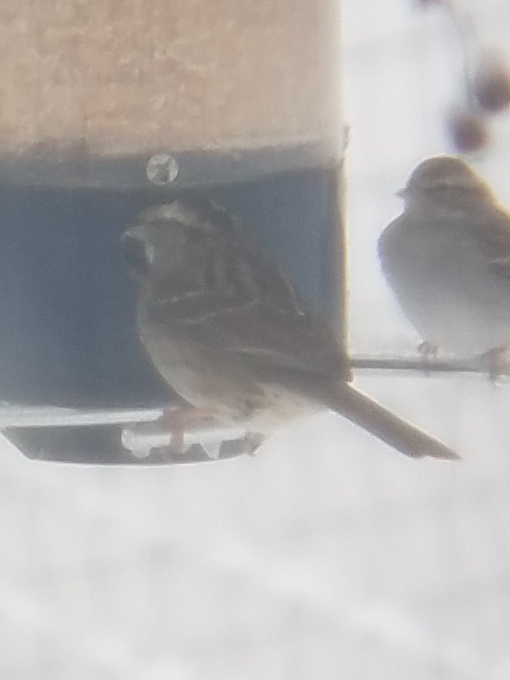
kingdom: Animalia
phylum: Chordata
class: Aves
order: Passeriformes
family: Passerellidae
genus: Zonotrichia
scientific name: Zonotrichia albicollis
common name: White-throated sparrow
